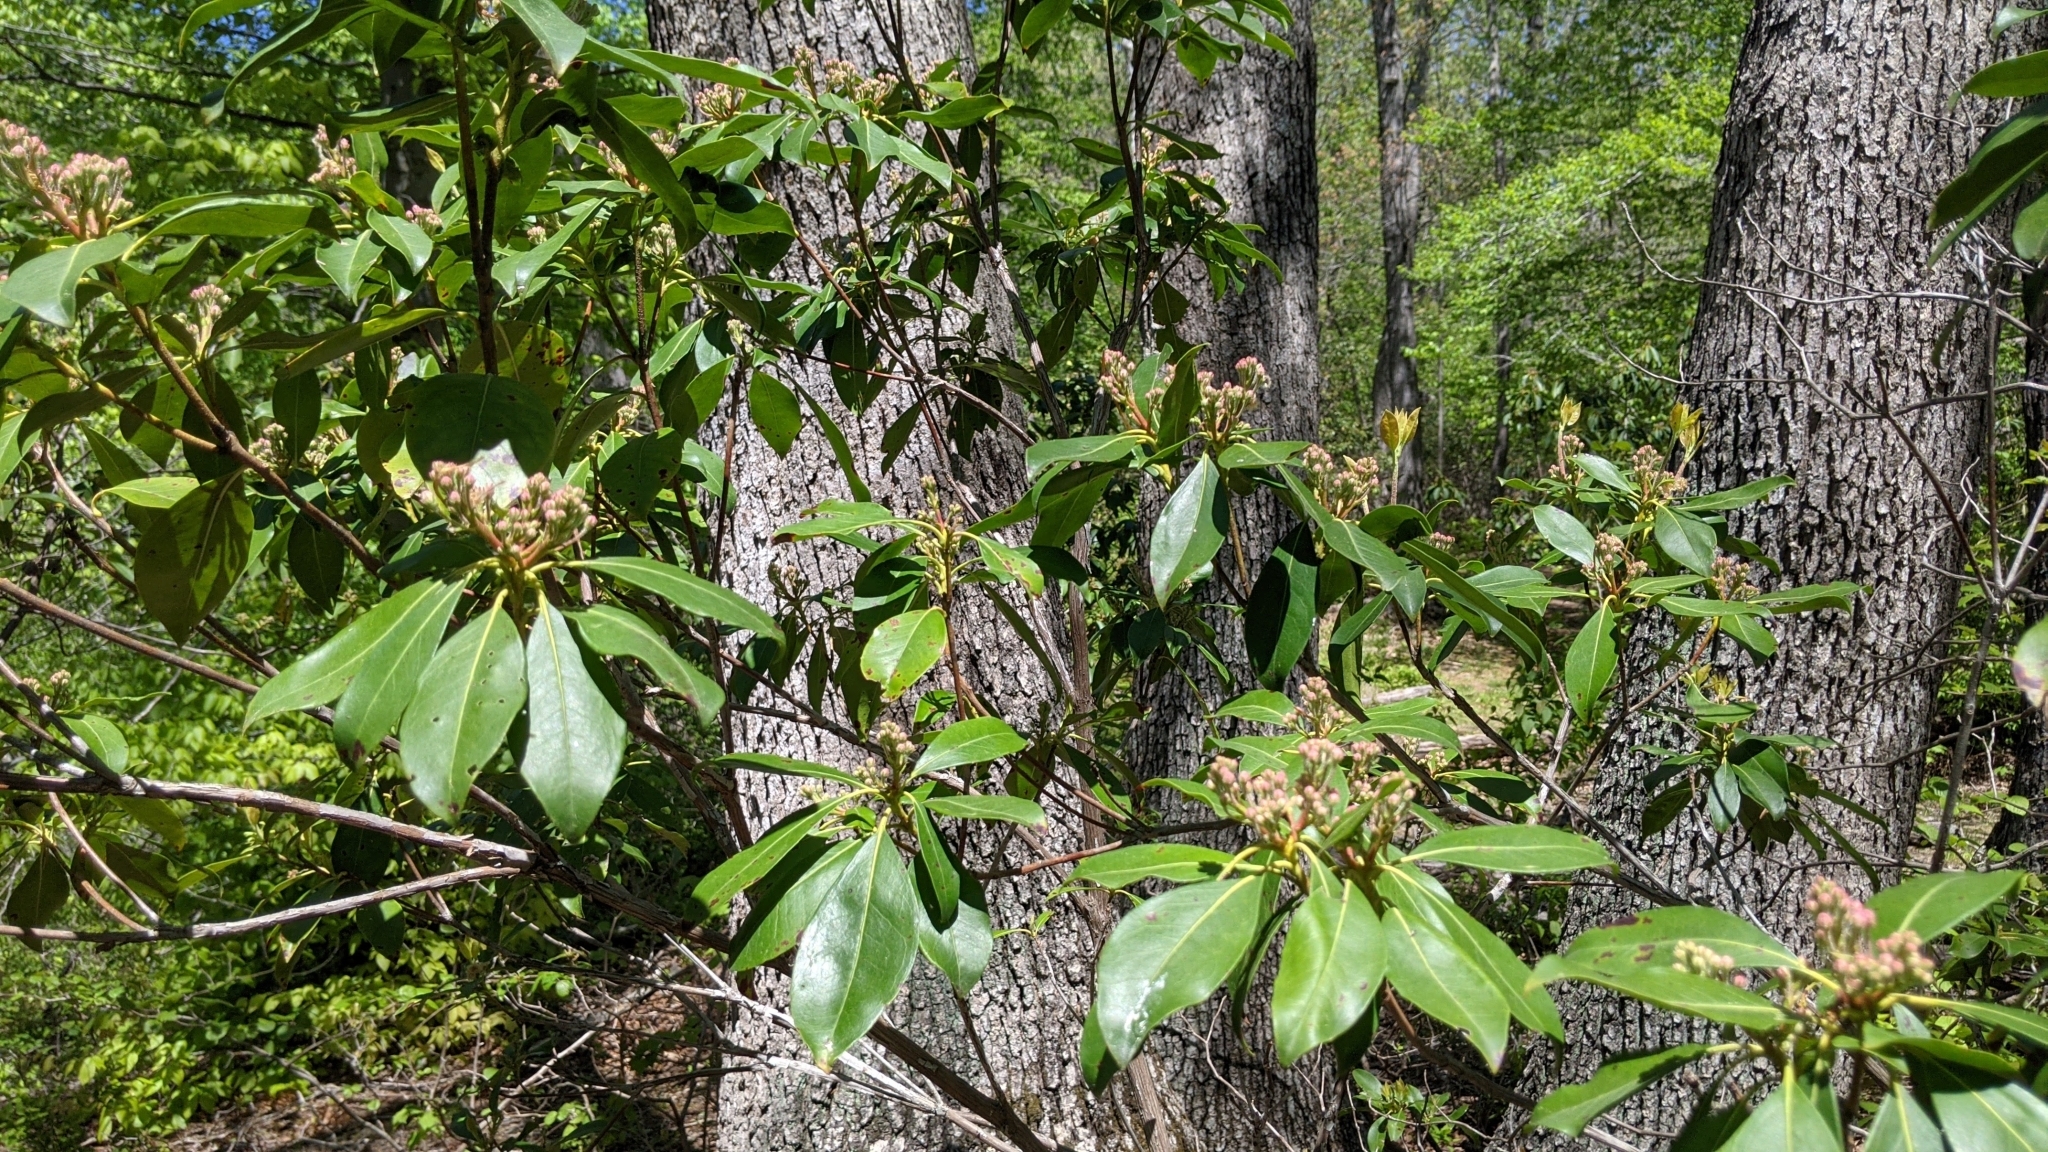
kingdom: Plantae
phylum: Tracheophyta
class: Magnoliopsida
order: Ericales
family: Ericaceae
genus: Kalmia
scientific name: Kalmia latifolia
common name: Mountain-laurel
